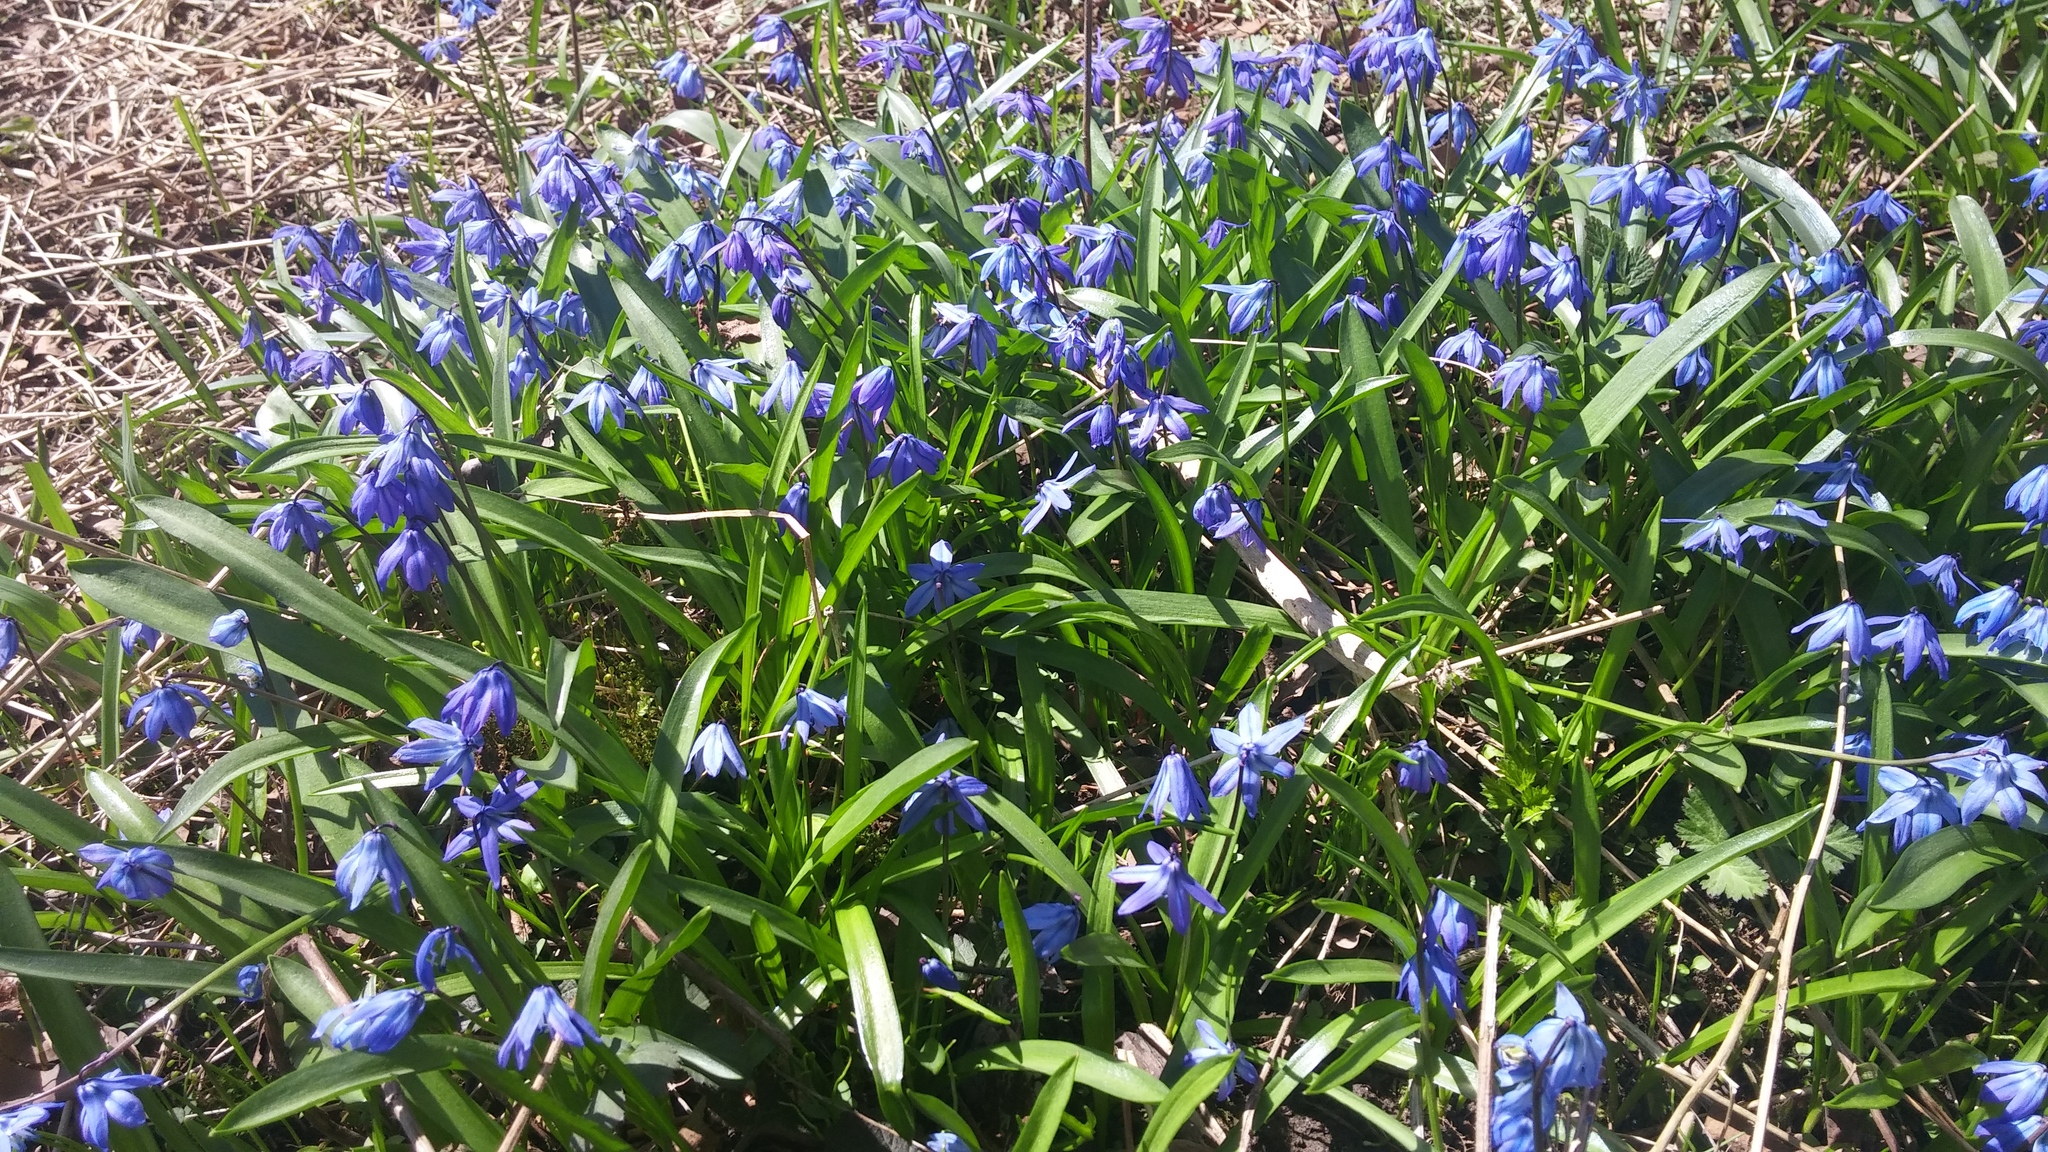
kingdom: Plantae
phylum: Tracheophyta
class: Liliopsida
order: Asparagales
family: Asparagaceae
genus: Scilla
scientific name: Scilla siberica
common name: Siberian squill
